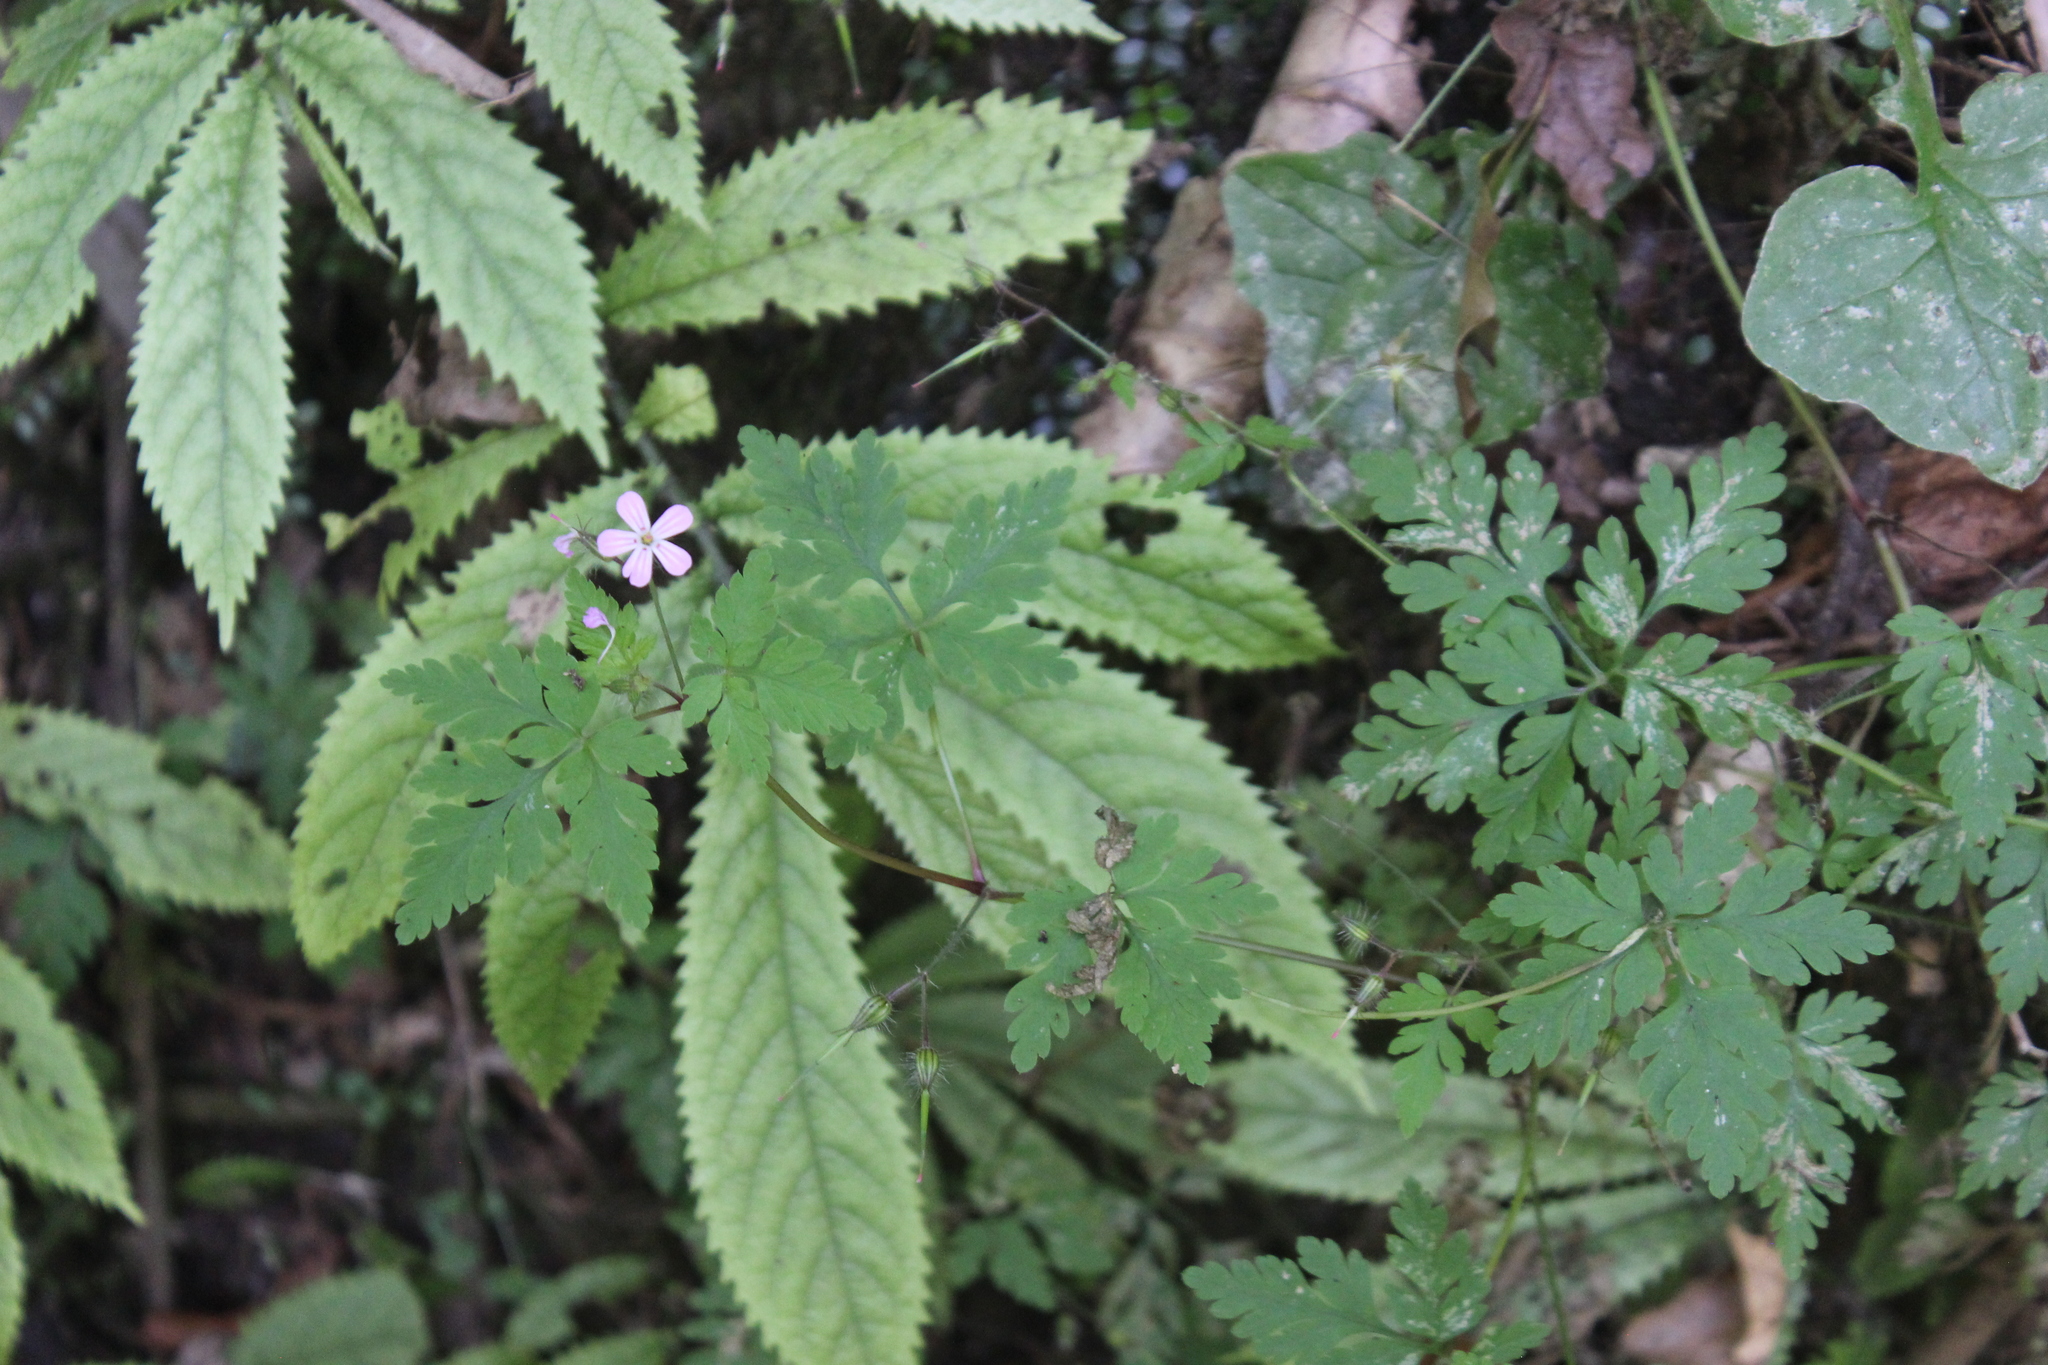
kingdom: Plantae
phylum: Tracheophyta
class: Magnoliopsida
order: Geraniales
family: Geraniaceae
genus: Geranium
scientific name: Geranium robertianum
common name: Herb-robert
